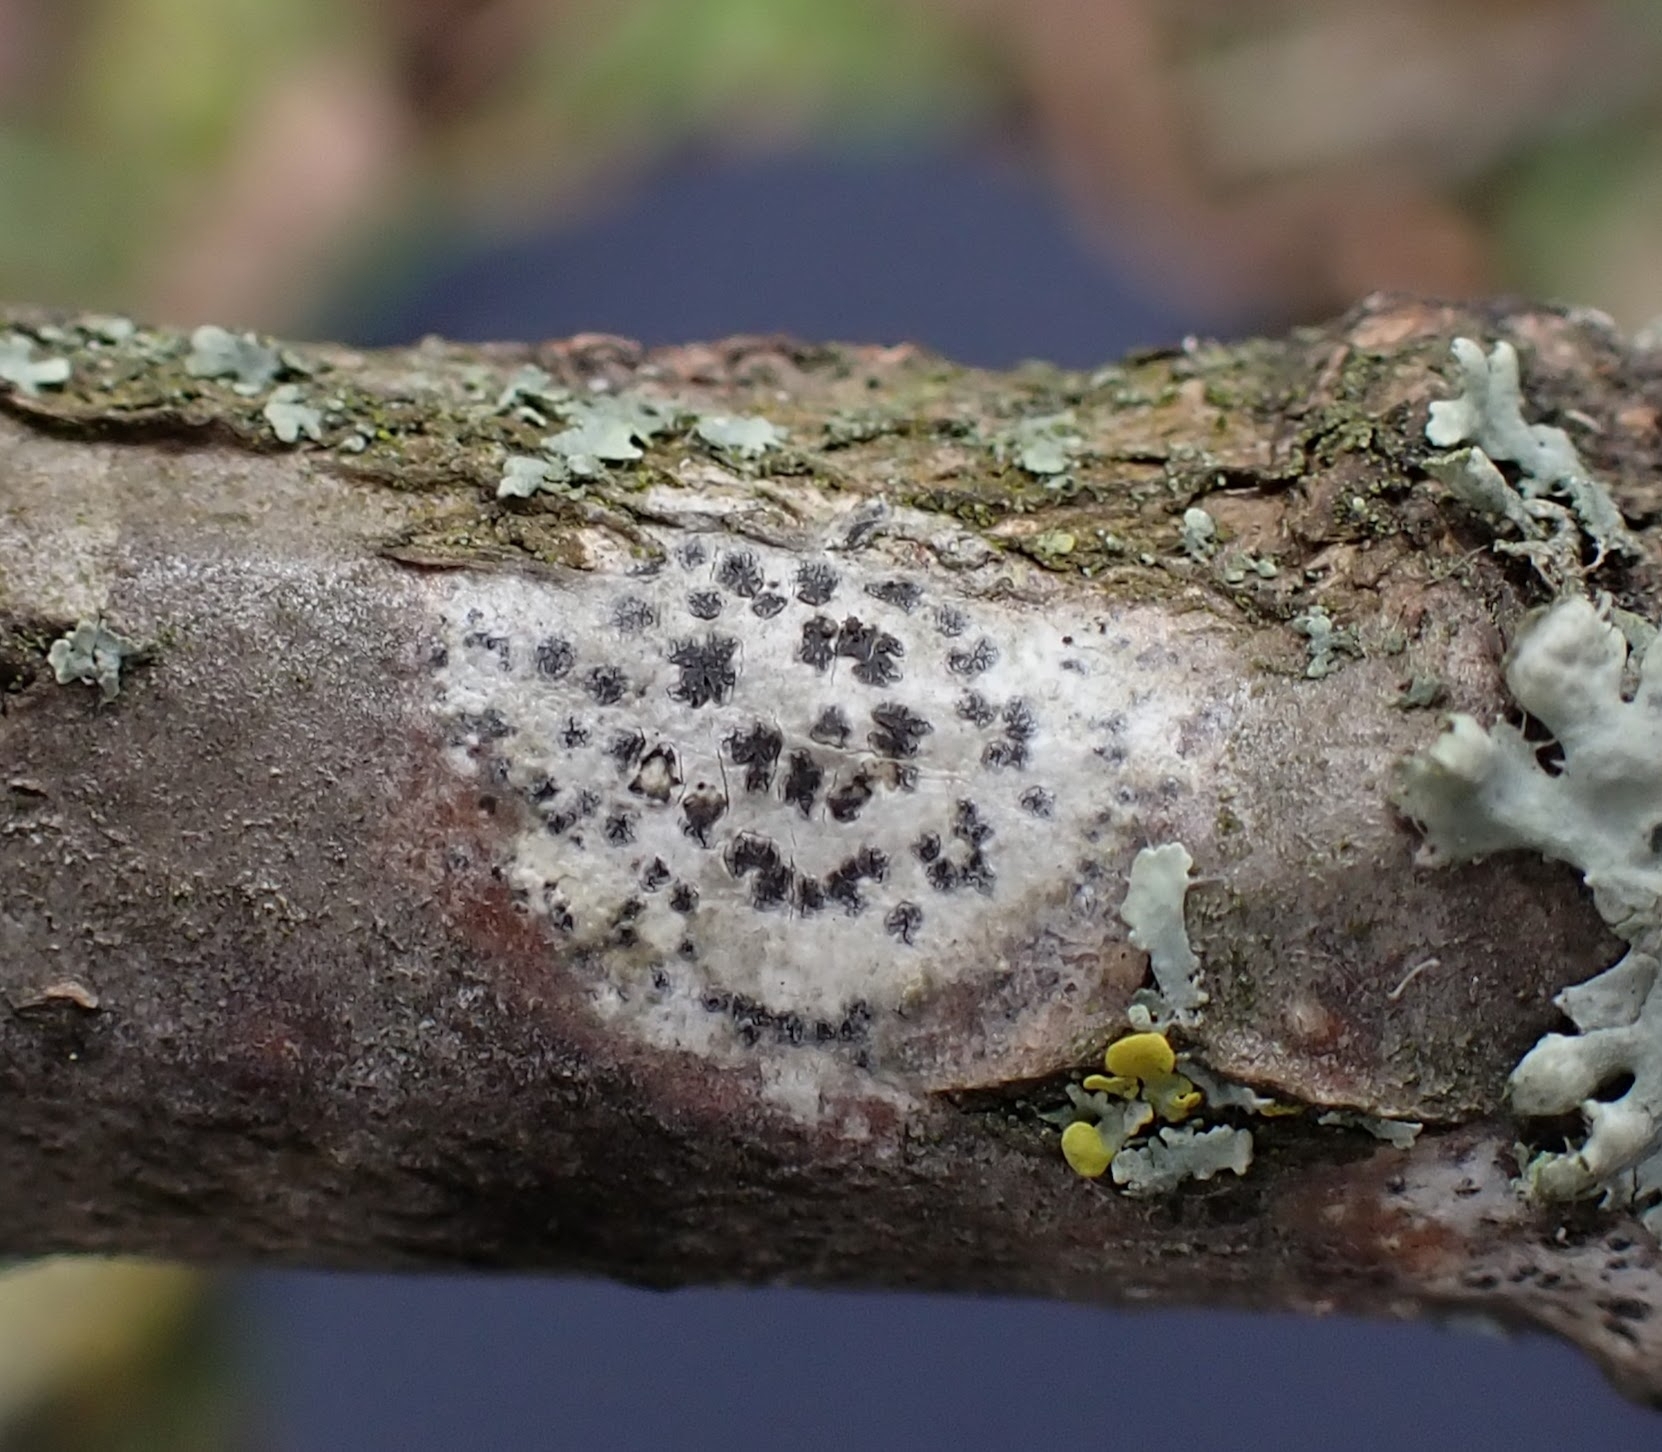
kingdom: Fungi
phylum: Ascomycota
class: Arthoniomycetes
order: Arthoniales
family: Arthoniaceae
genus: Arthonia
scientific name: Arthonia radiata
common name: Asterisk lichen
